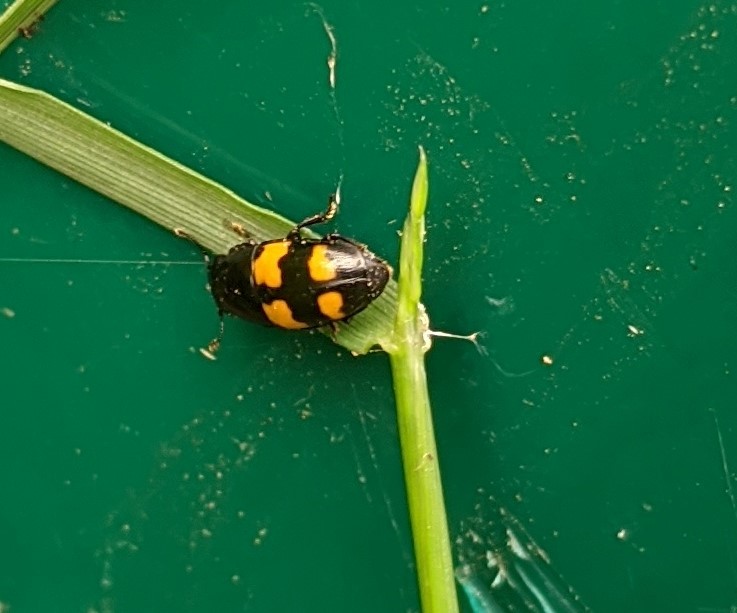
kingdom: Animalia
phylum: Arthropoda
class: Insecta
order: Coleoptera
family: Nitidulidae
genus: Glischrochilus
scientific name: Glischrochilus fasciatus
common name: Picnic beetle
